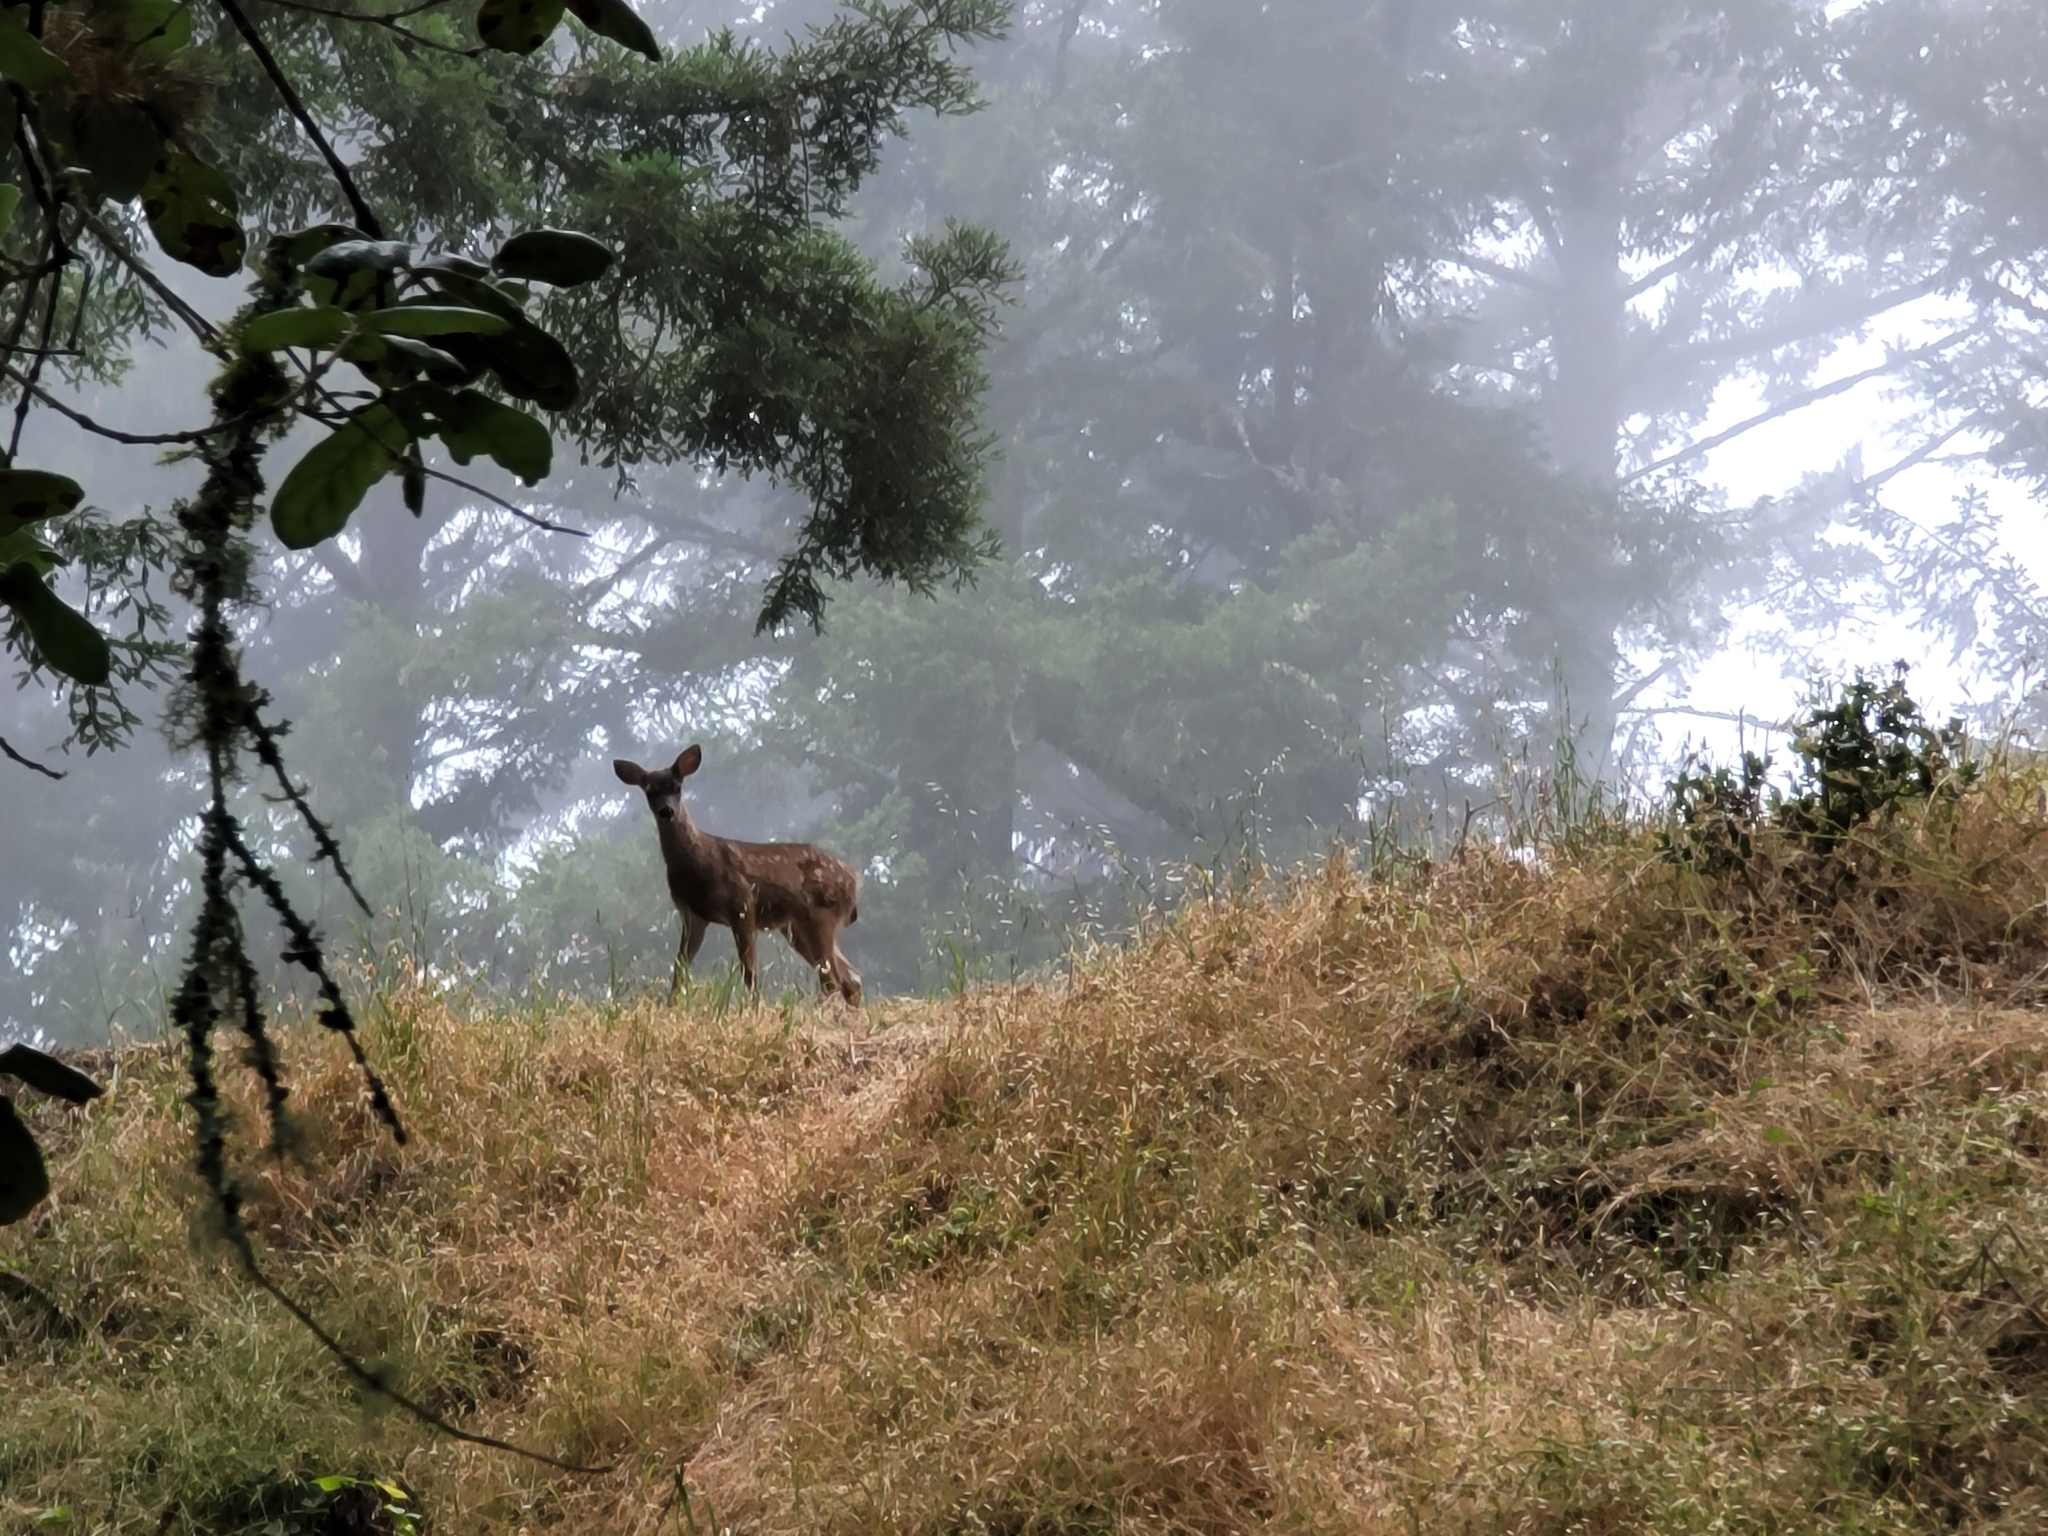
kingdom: Animalia
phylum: Chordata
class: Mammalia
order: Artiodactyla
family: Cervidae
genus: Odocoileus
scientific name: Odocoileus hemionus
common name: Mule deer
